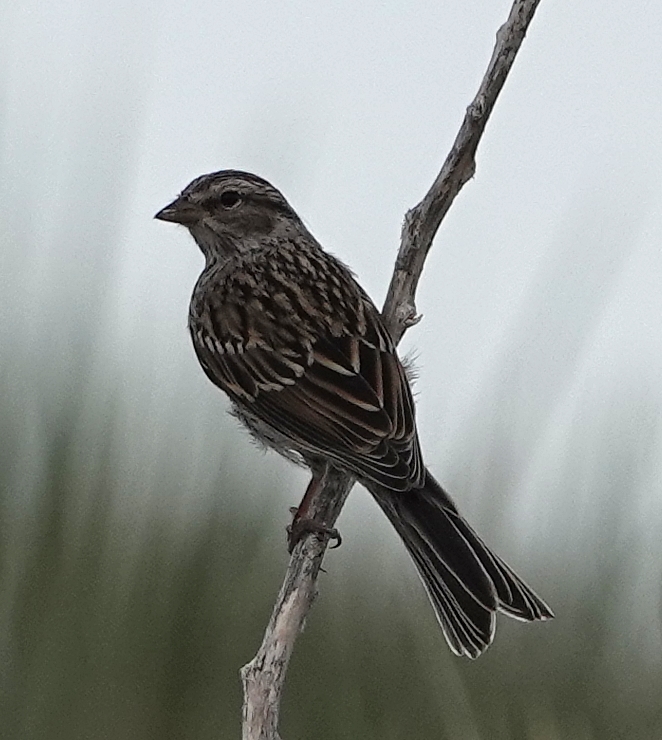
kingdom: Animalia
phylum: Chordata
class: Aves
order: Passeriformes
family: Passerellidae
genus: Spizella
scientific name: Spizella passerina
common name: Chipping sparrow
